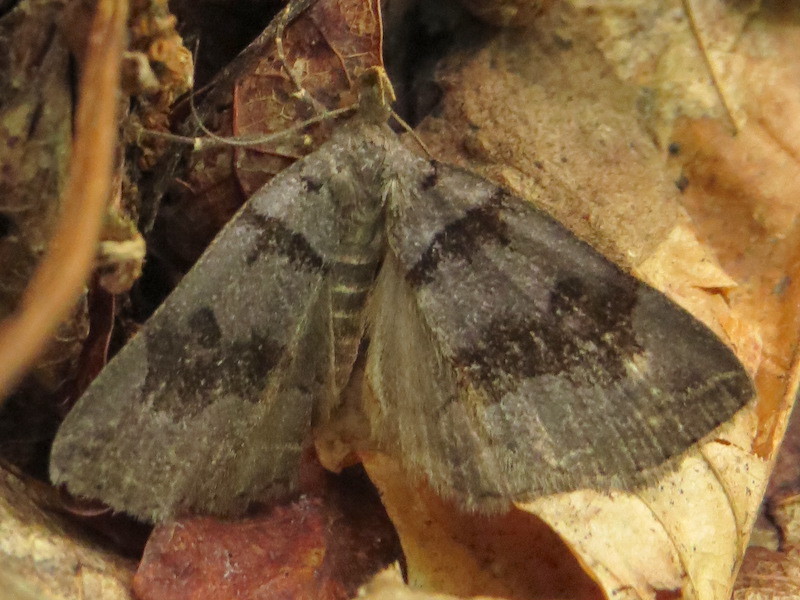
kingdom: Animalia
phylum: Arthropoda
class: Insecta
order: Lepidoptera
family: Erebidae
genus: Zanclognatha
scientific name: Zanclognatha laevigata
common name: Variable fan-foot
